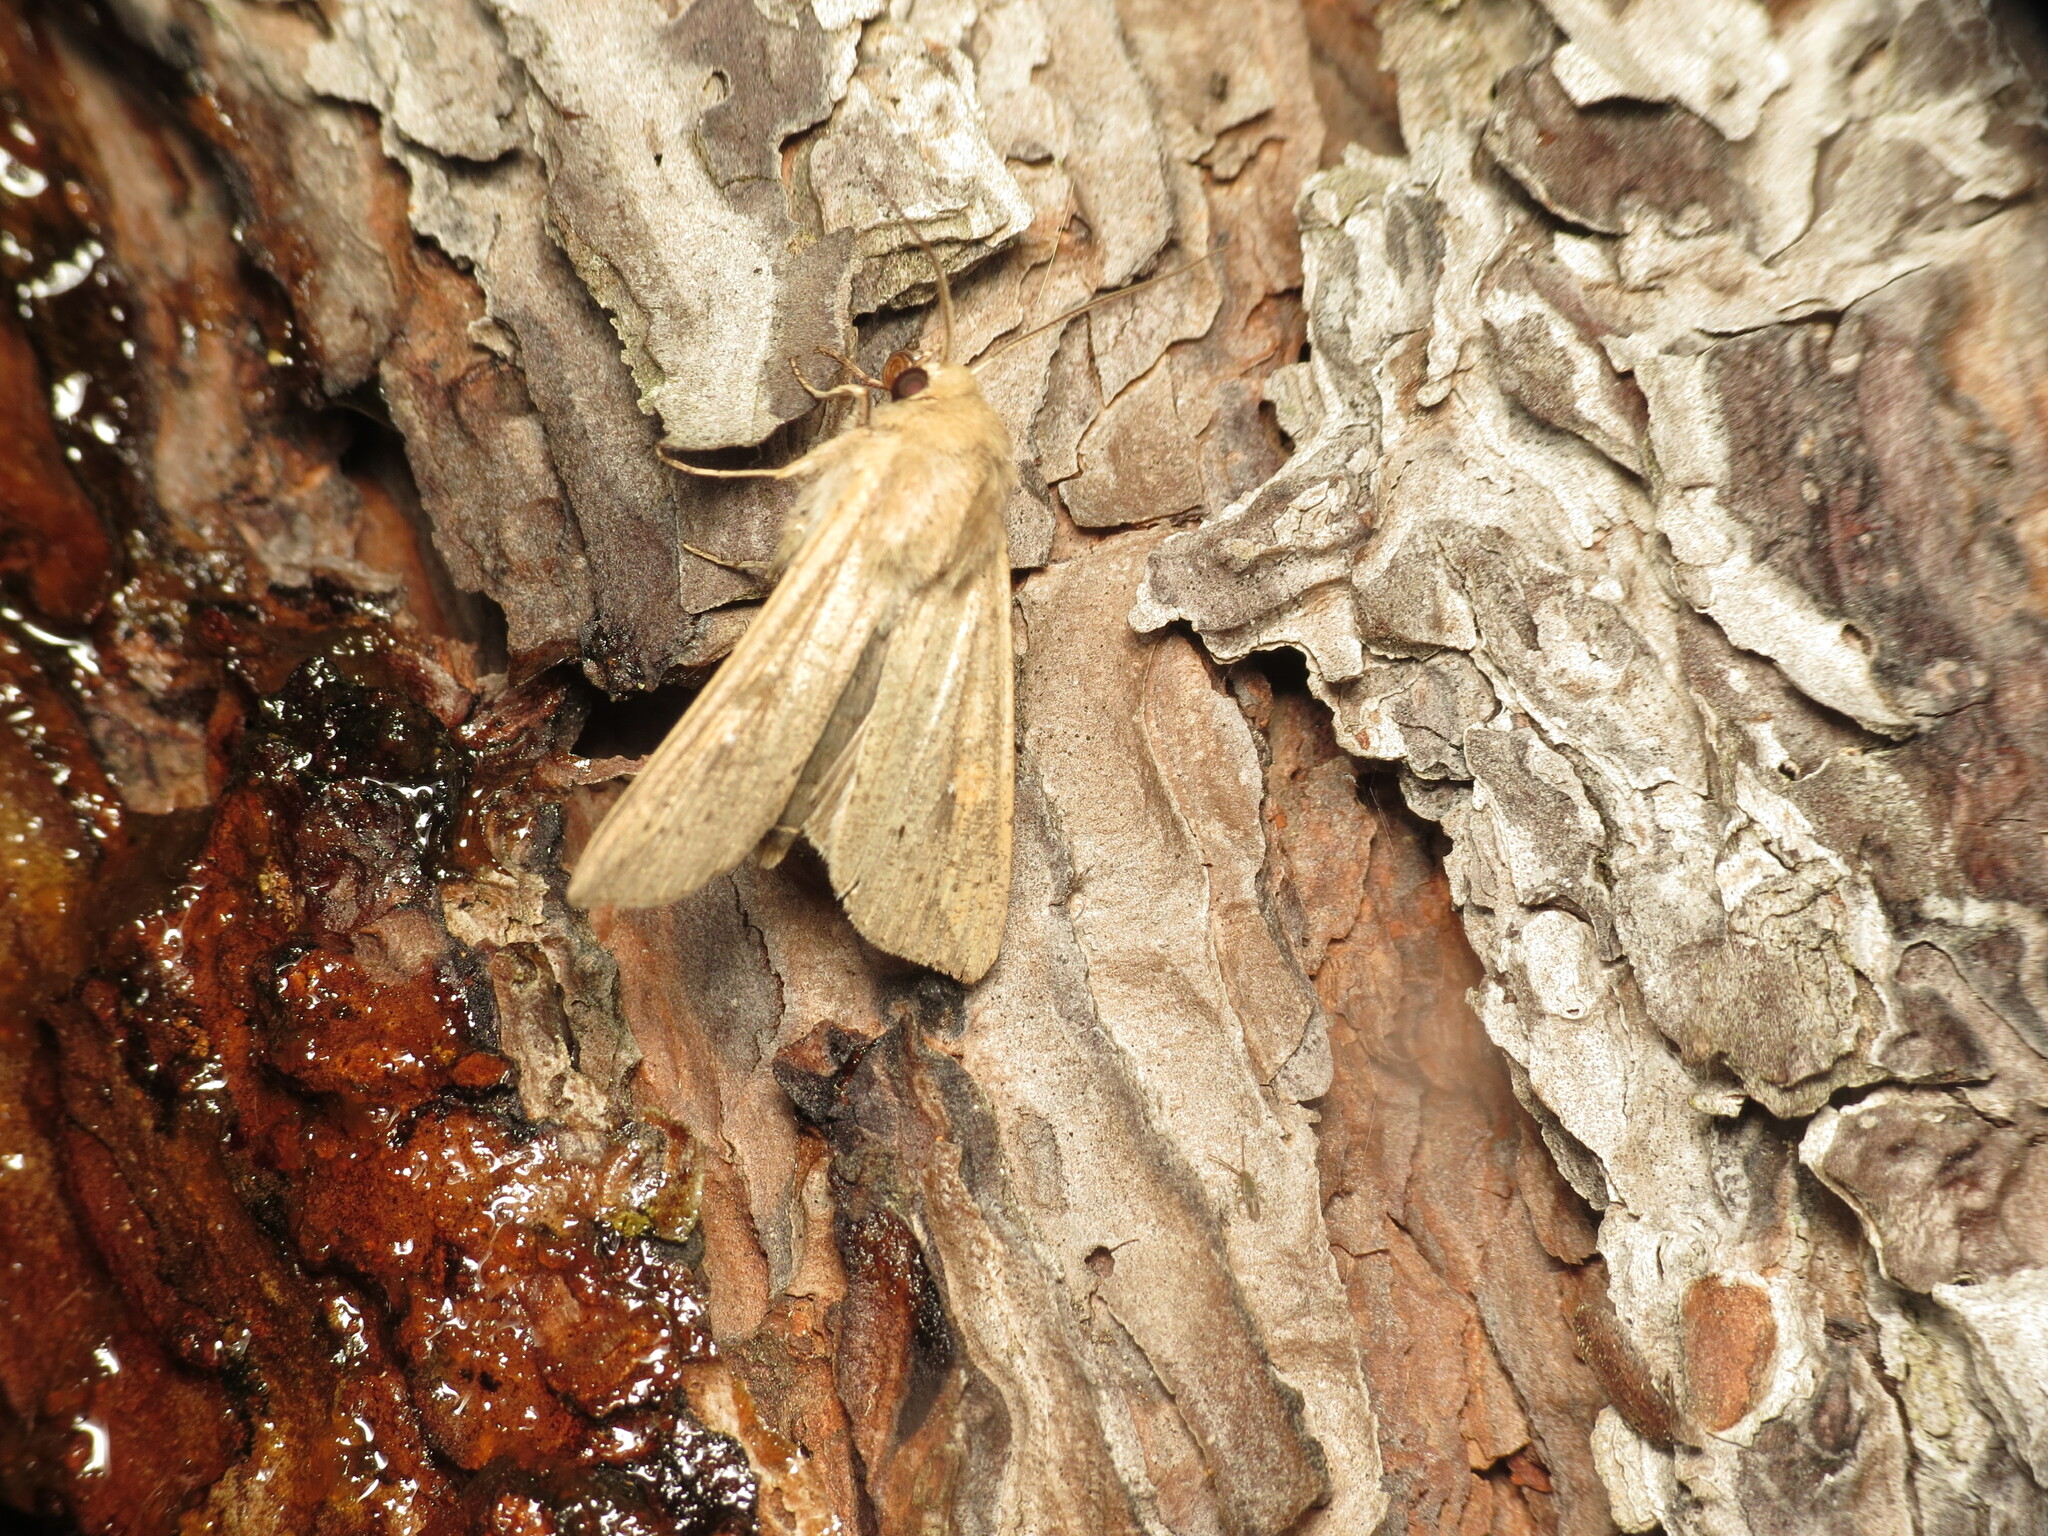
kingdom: Animalia
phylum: Arthropoda
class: Insecta
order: Lepidoptera
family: Noctuidae
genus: Mythimna
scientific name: Mythimna unipuncta
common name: White-speck
